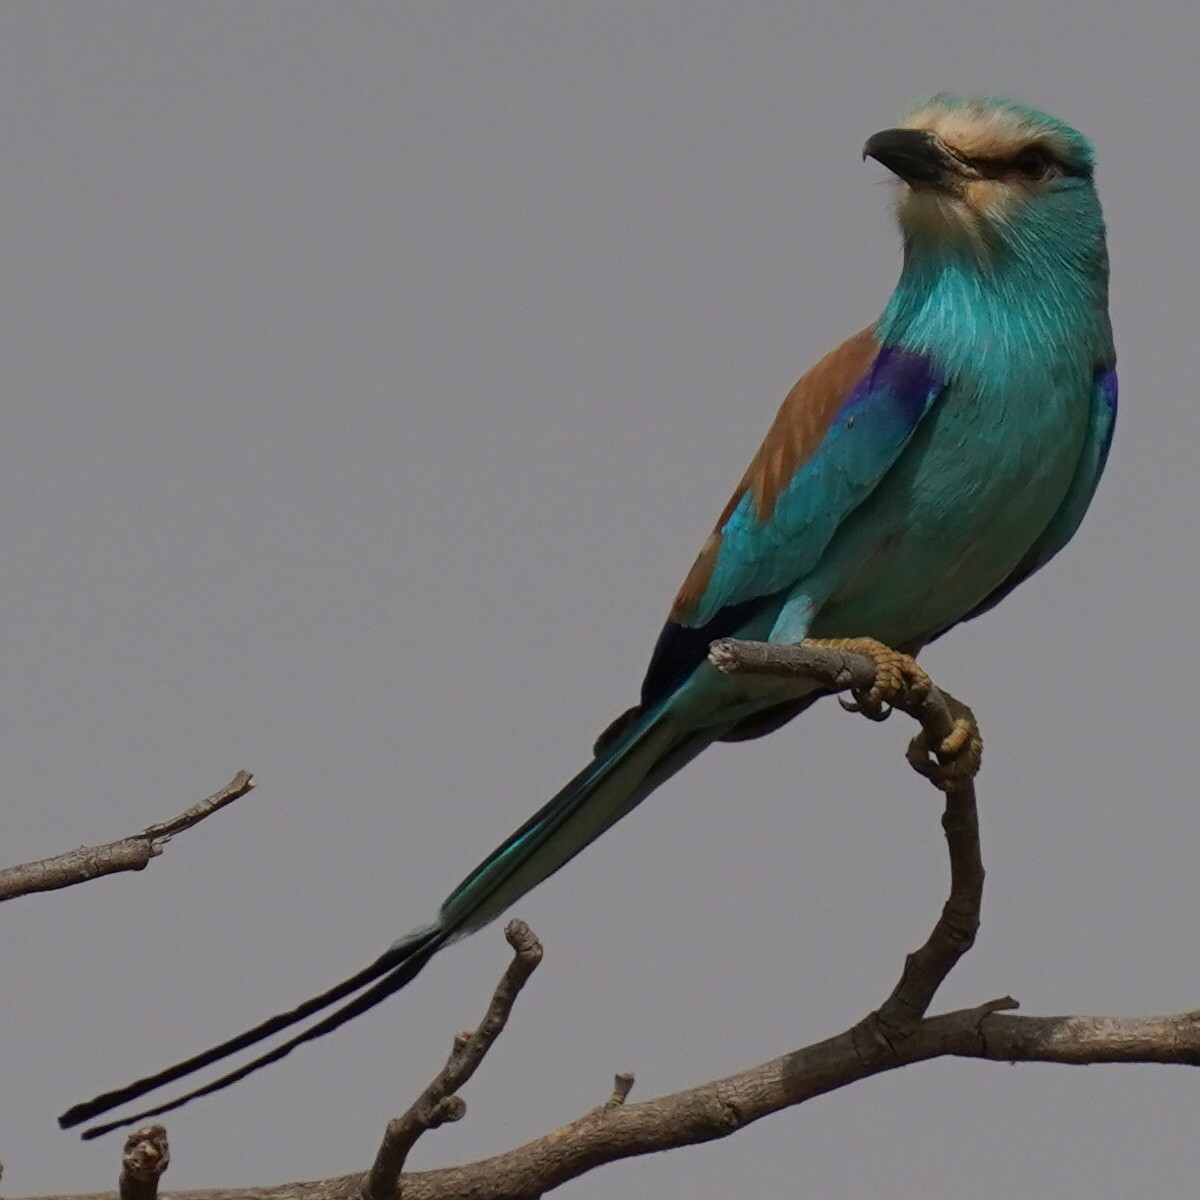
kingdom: Animalia
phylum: Chordata
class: Aves
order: Coraciiformes
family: Coraciidae
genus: Coracias
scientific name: Coracias abyssinicus
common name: Abyssinian roller
